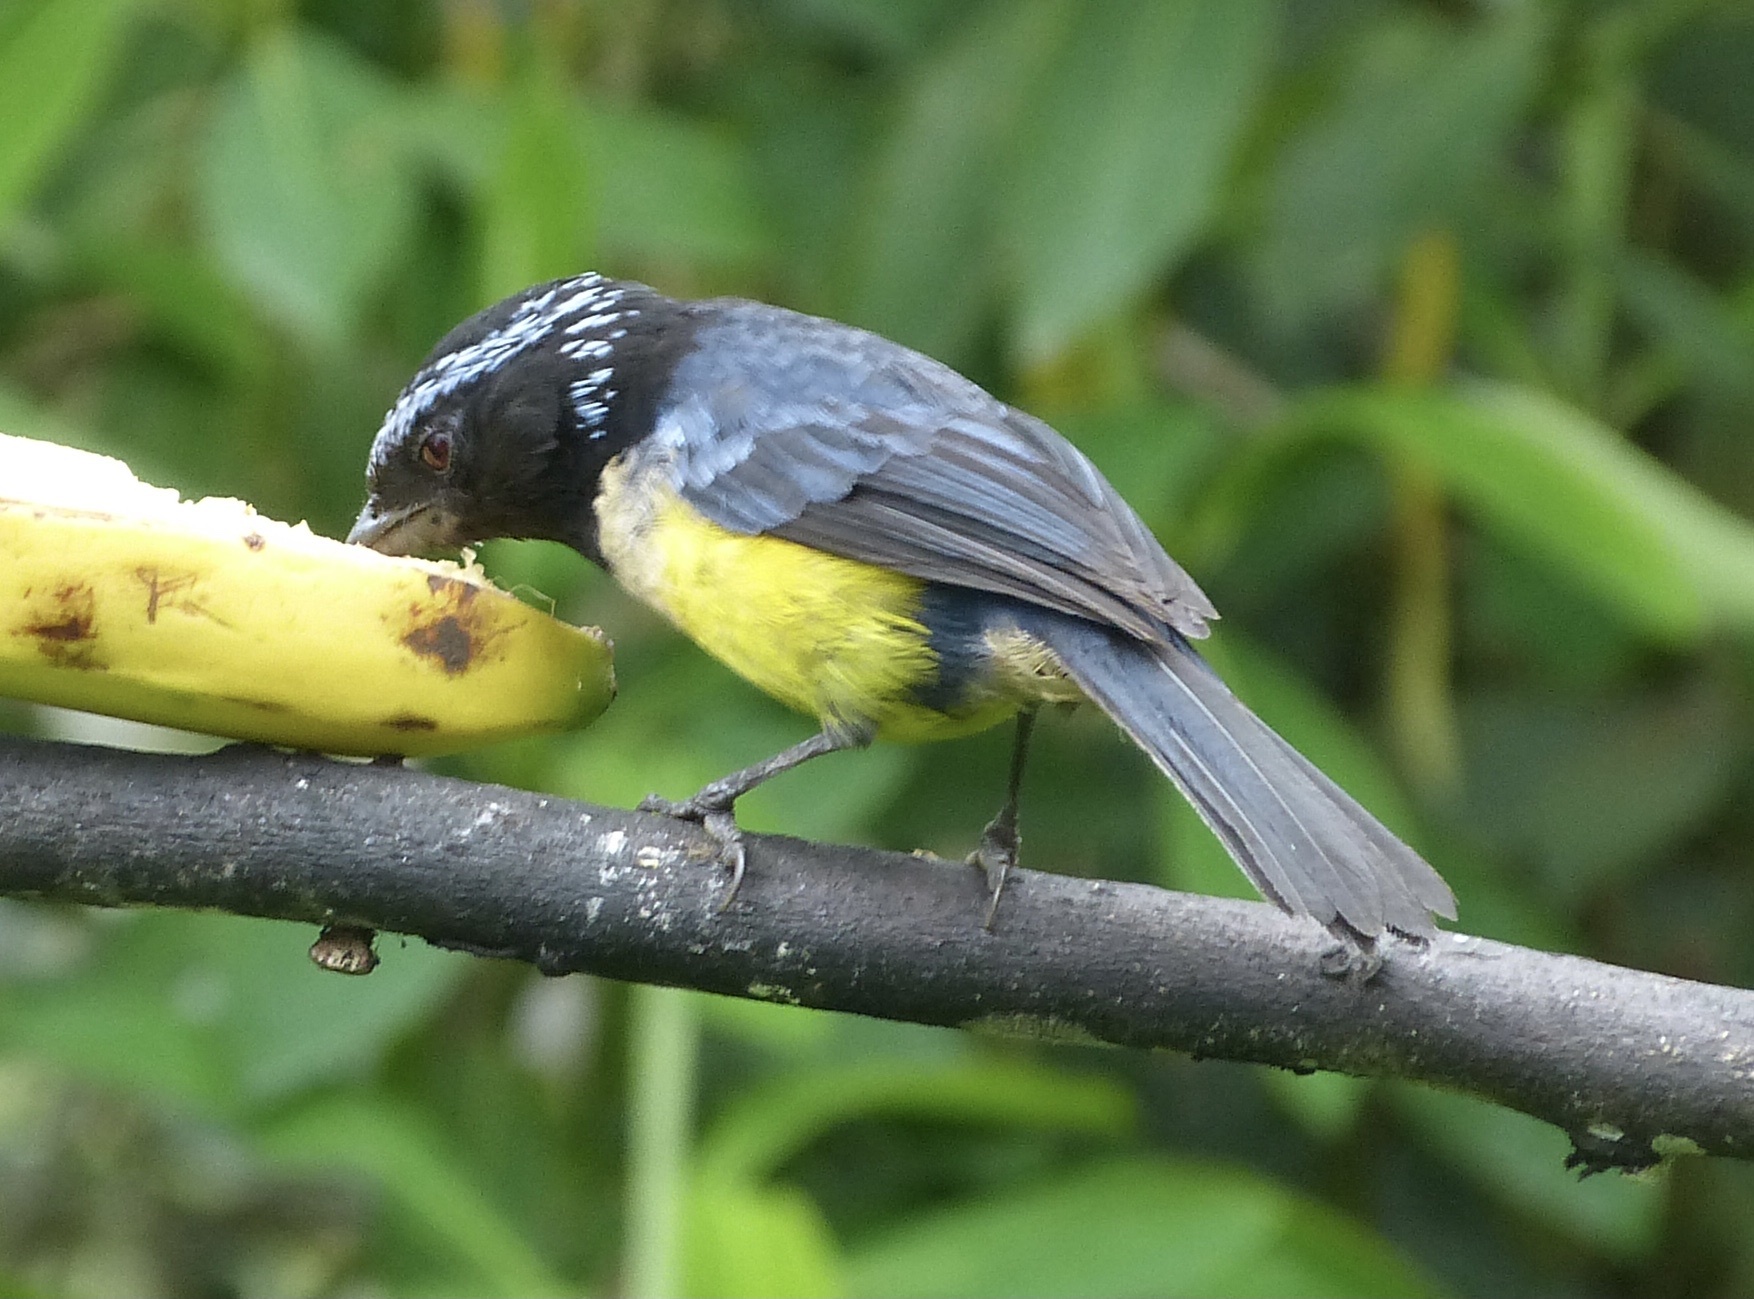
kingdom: Animalia
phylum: Chordata
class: Aves
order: Passeriformes
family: Thraupidae
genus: Dubusia
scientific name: Dubusia taeniata
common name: Buff-breasted mountain tanager
